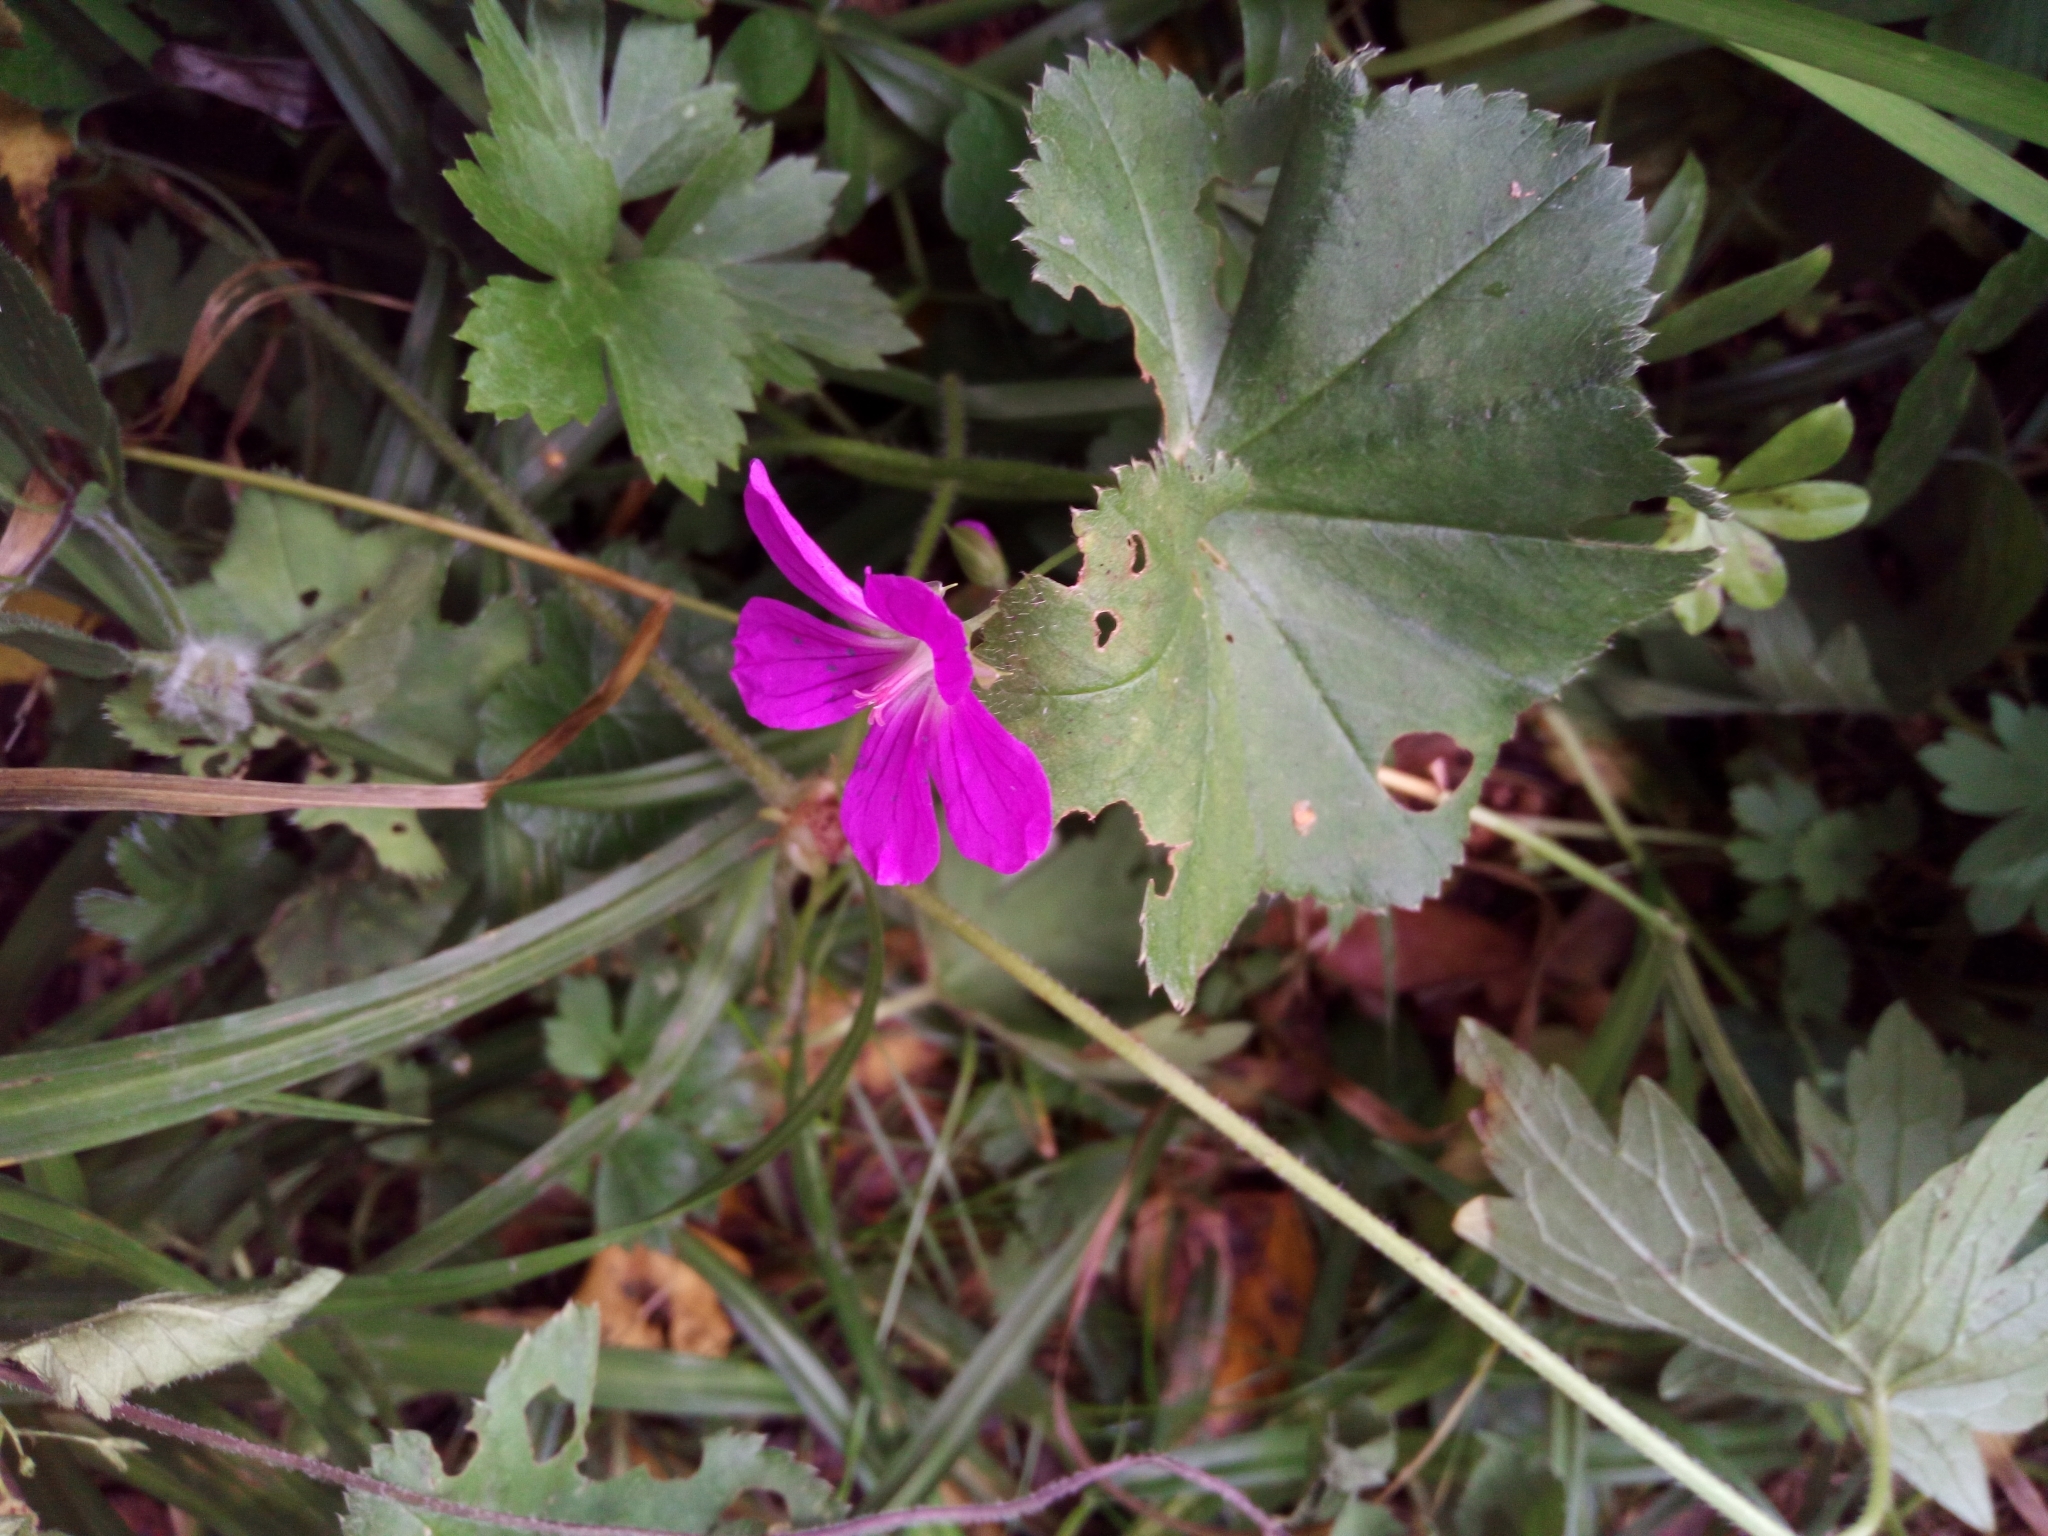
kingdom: Plantae
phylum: Tracheophyta
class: Magnoliopsida
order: Geraniales
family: Geraniaceae
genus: Geranium
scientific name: Geranium palustre
